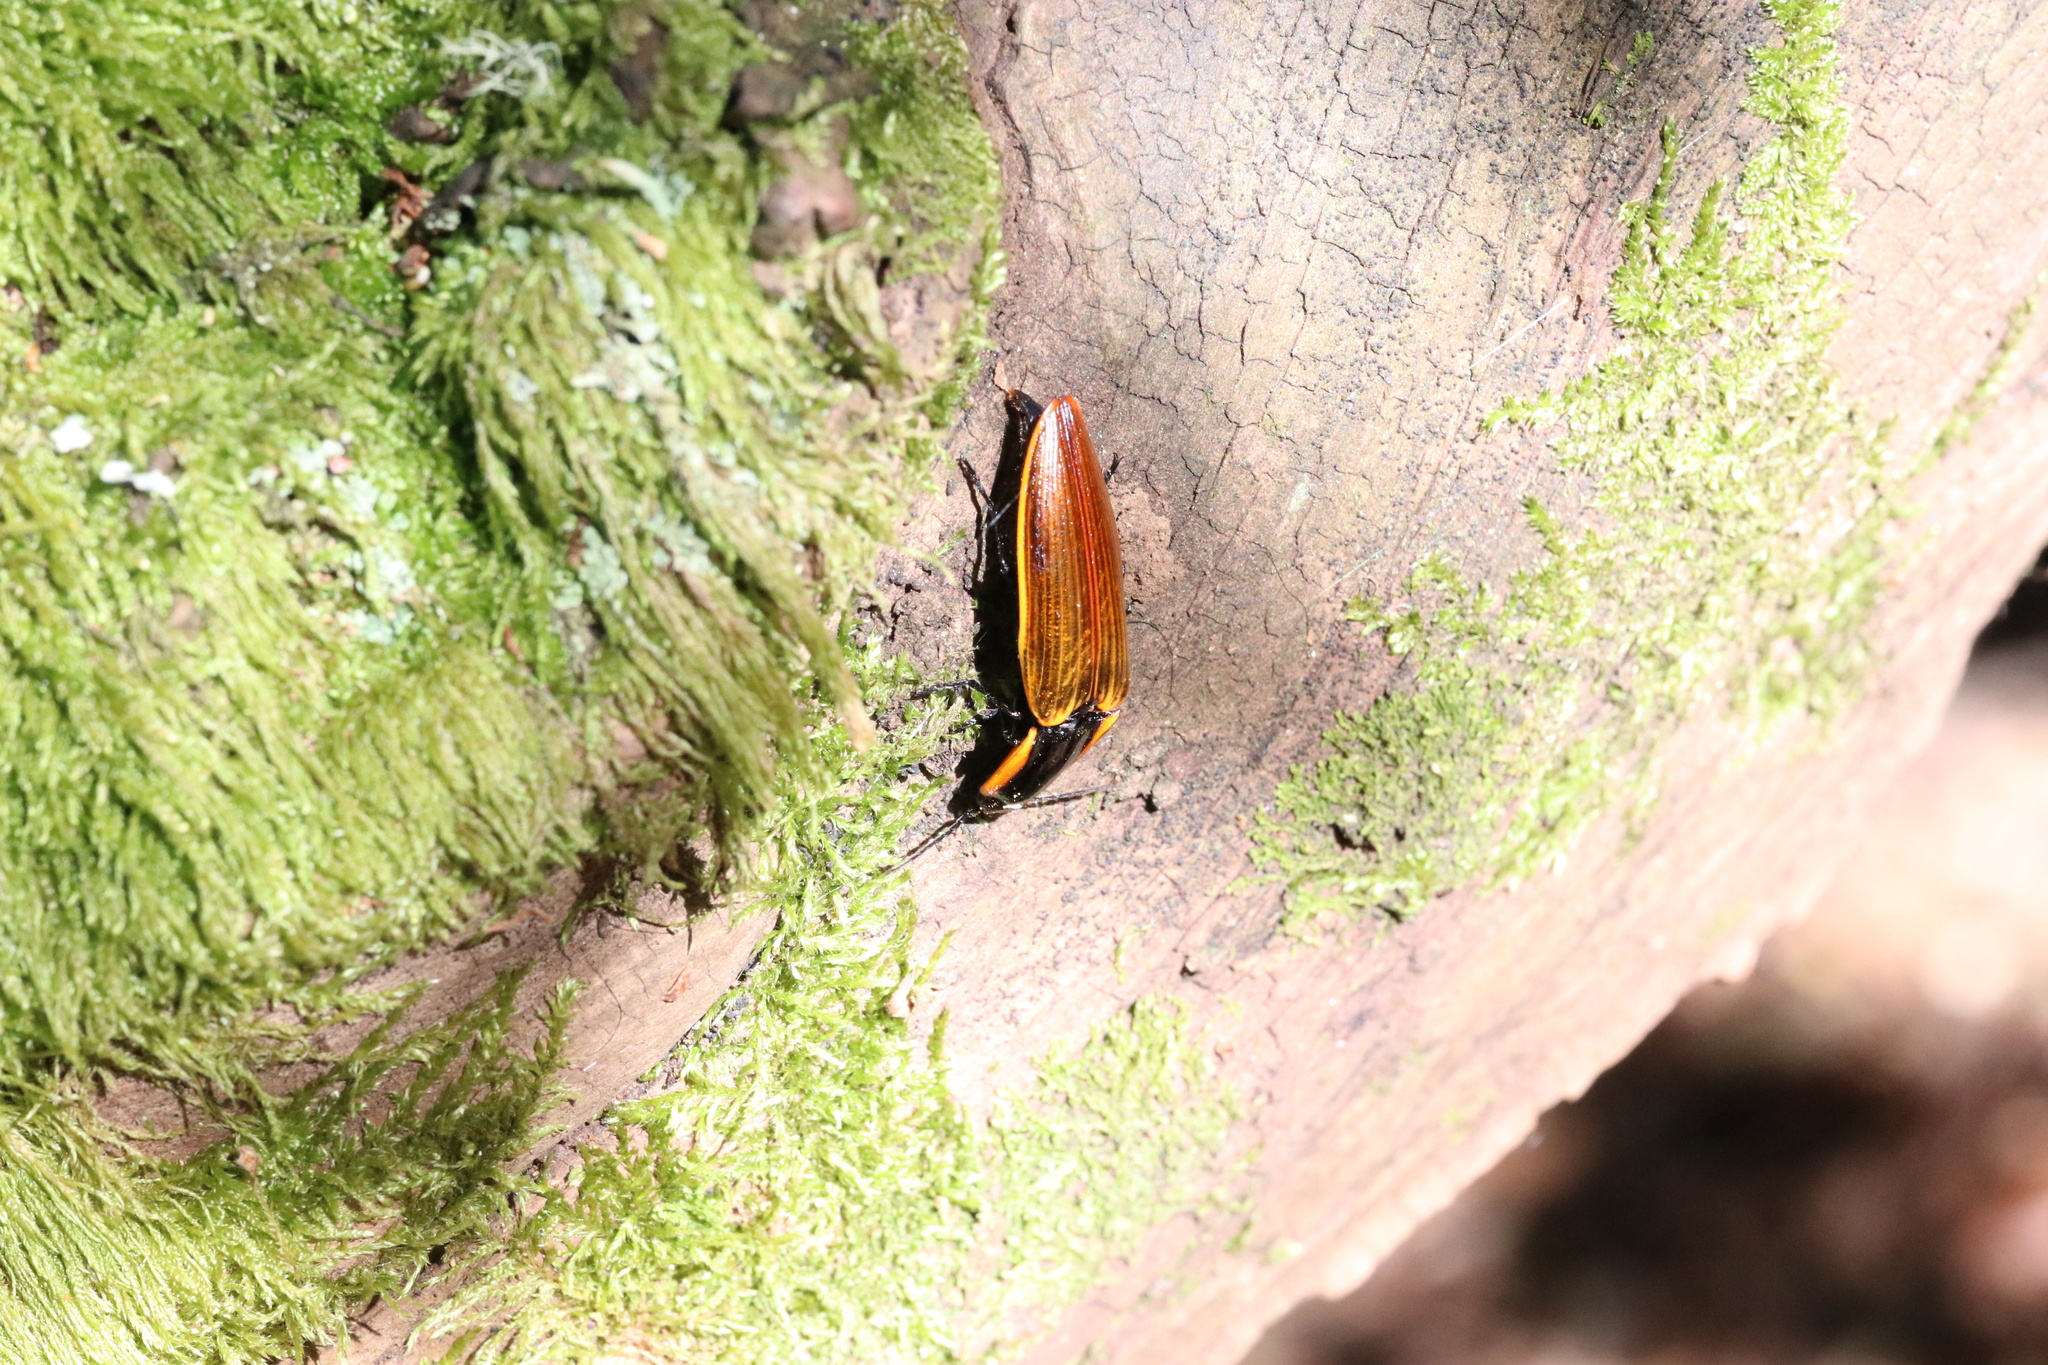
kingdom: Animalia
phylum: Arthropoda
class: Insecta
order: Coleoptera
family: Elateridae
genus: Semiotus
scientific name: Semiotus
